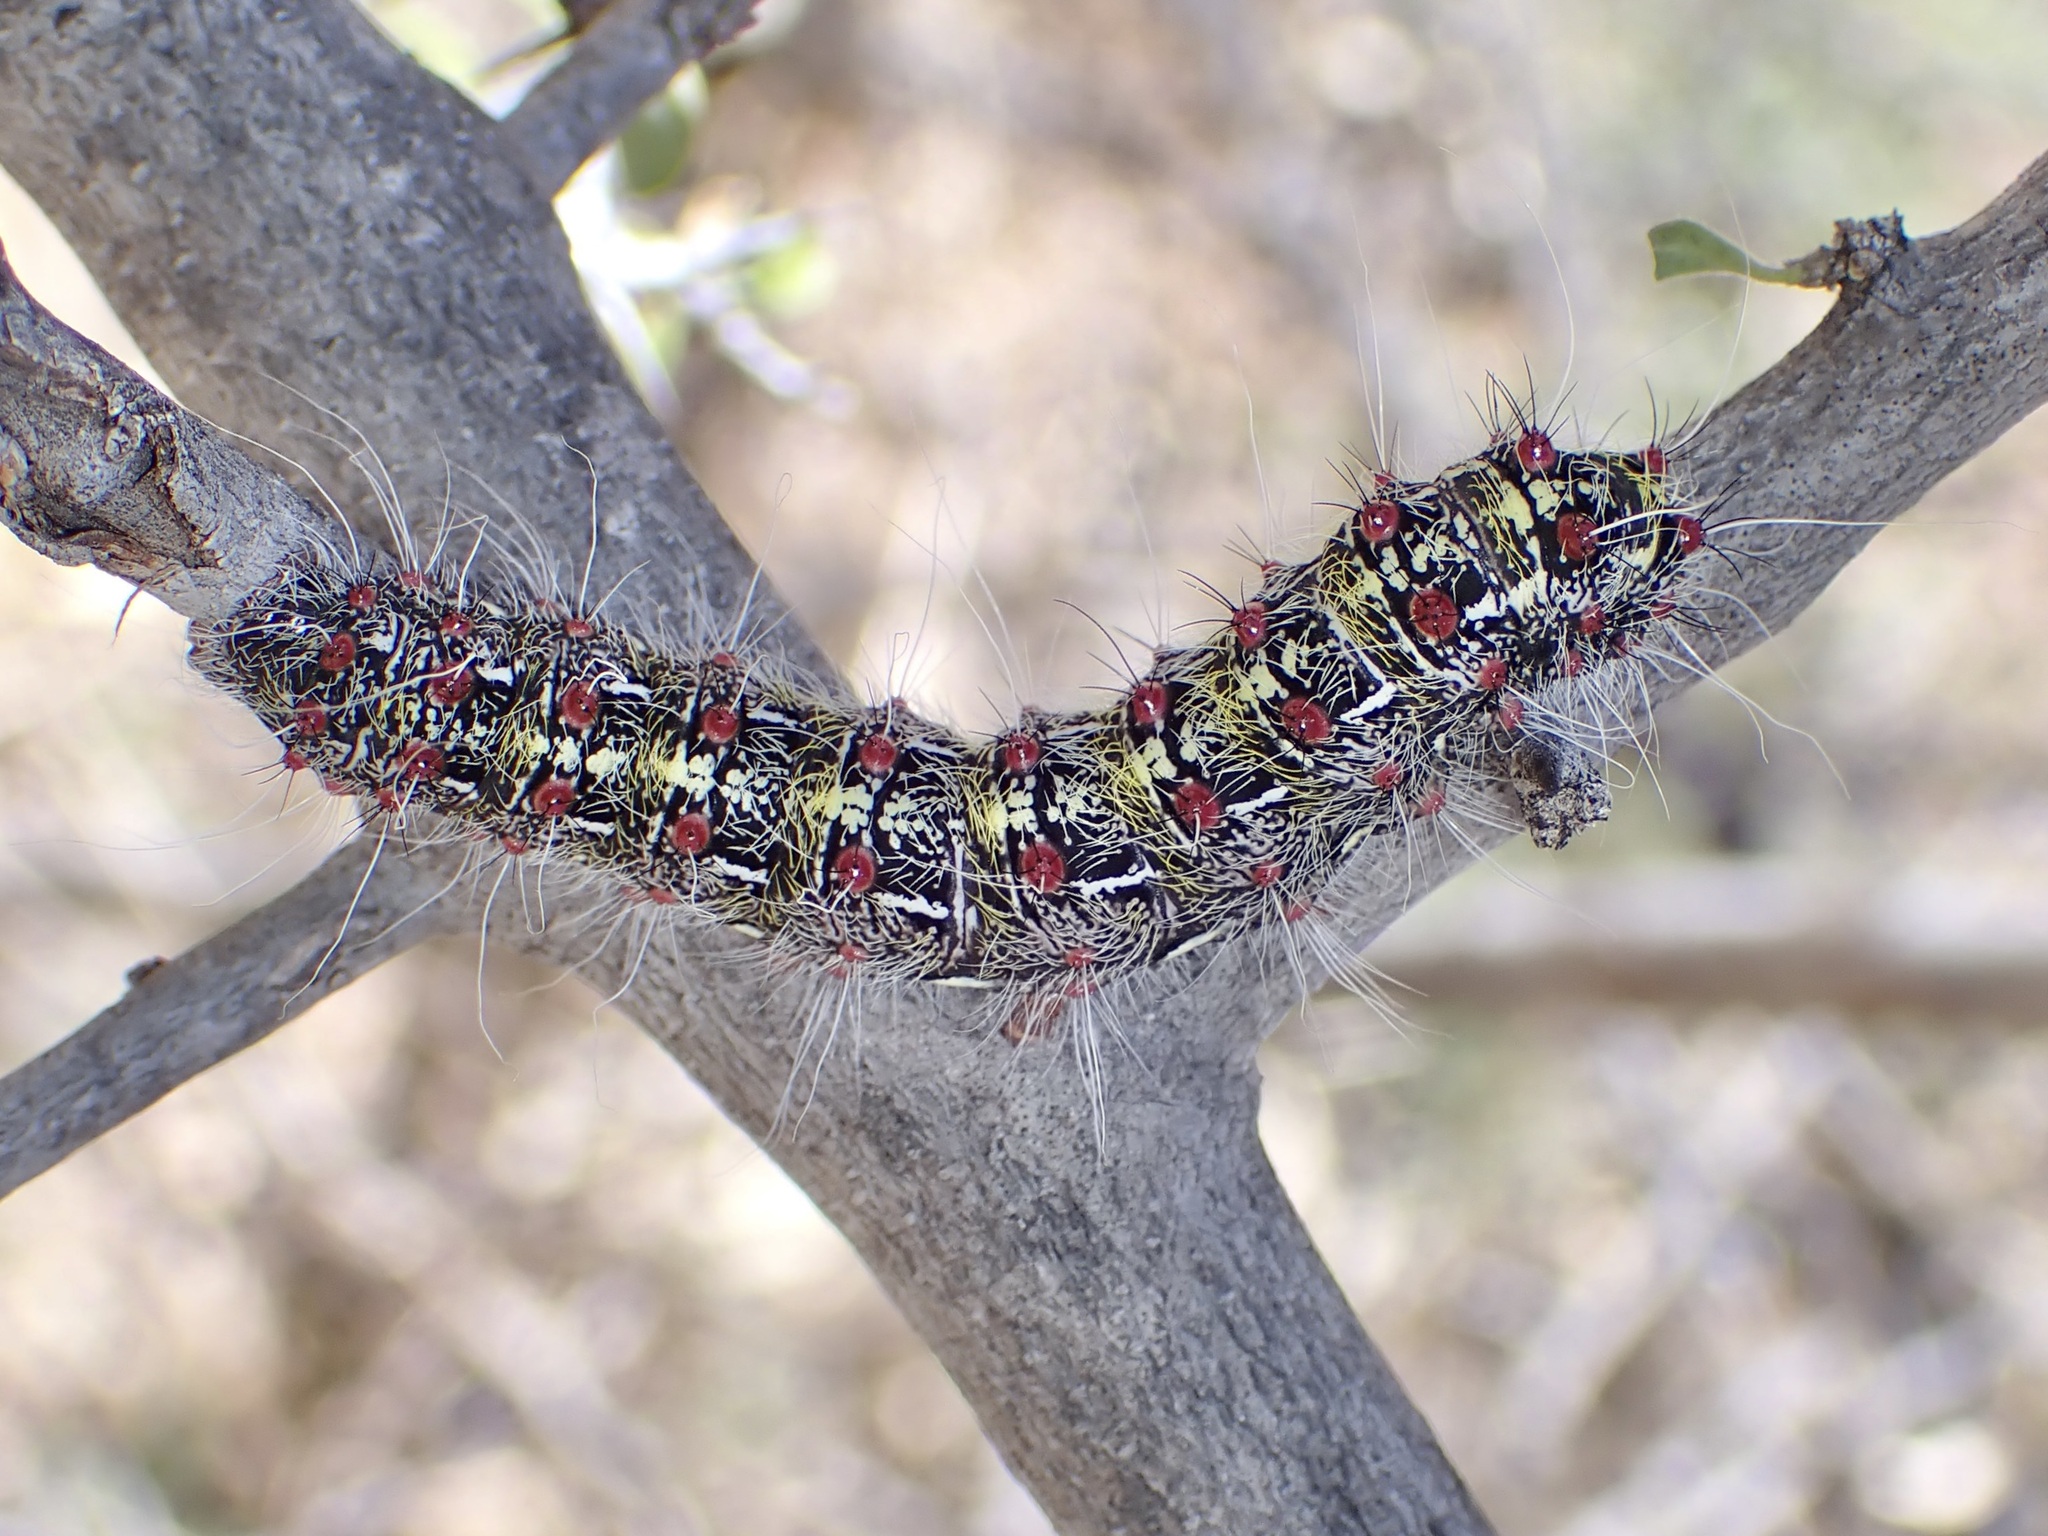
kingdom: Animalia
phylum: Arthropoda
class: Insecta
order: Lepidoptera
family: Saturniidae
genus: Saturnia
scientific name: Saturnia anona
